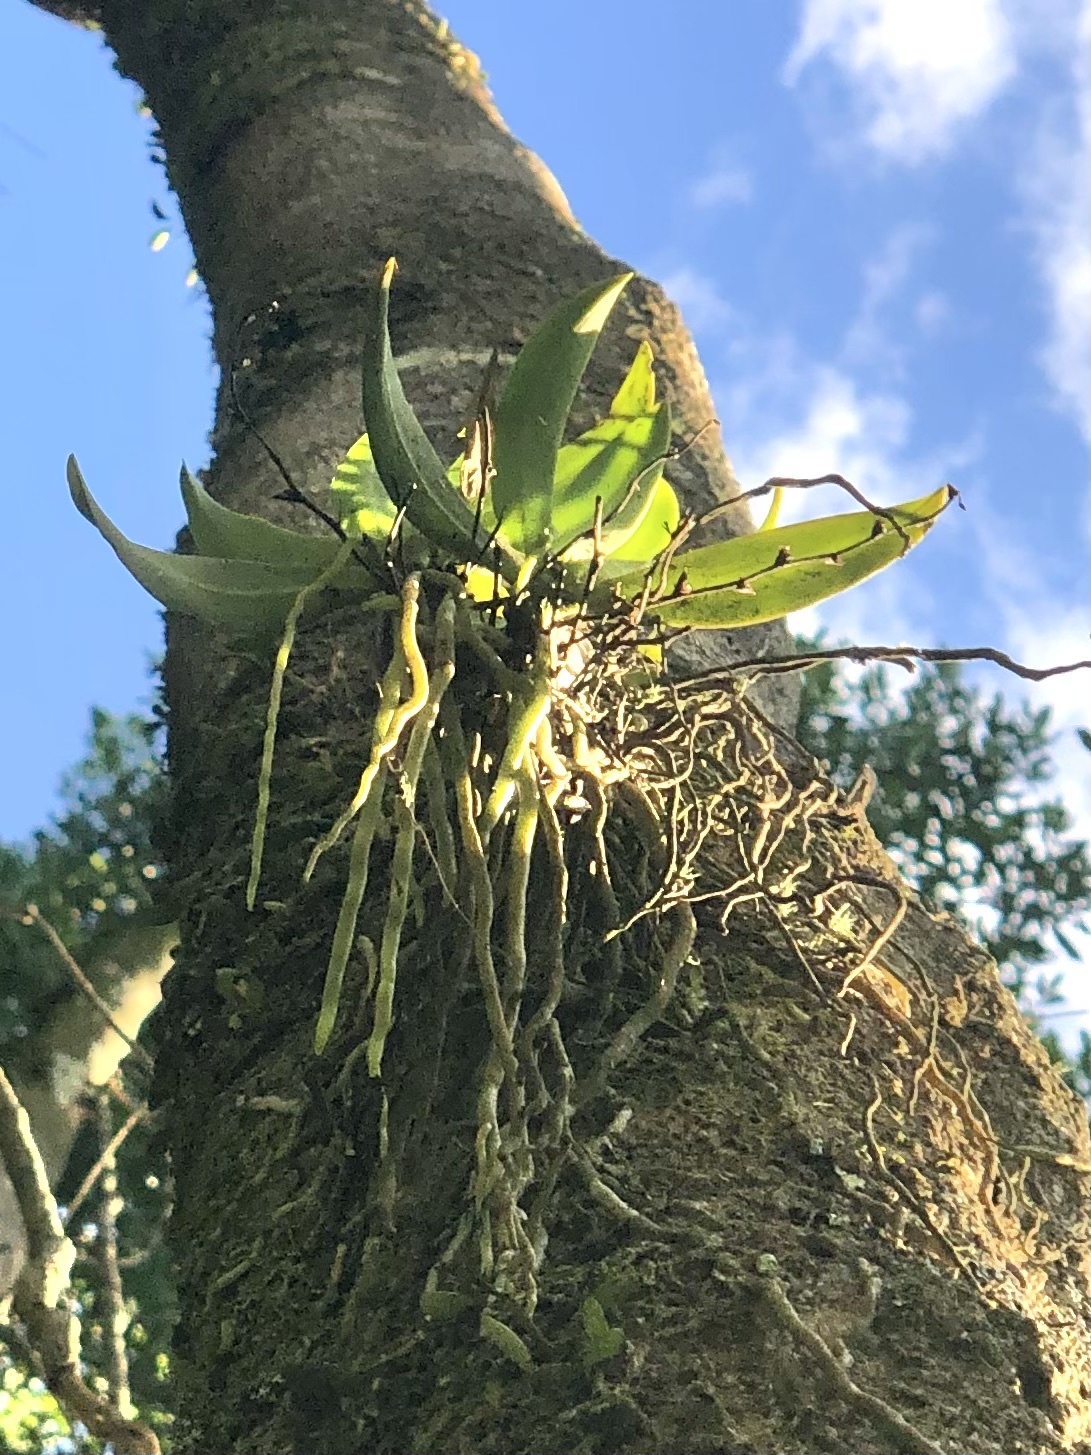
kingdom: Plantae
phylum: Tracheophyta
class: Liliopsida
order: Asparagales
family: Orchidaceae
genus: Sarcochilus
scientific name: Sarcochilus falcatus
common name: Orange blossom orchid
